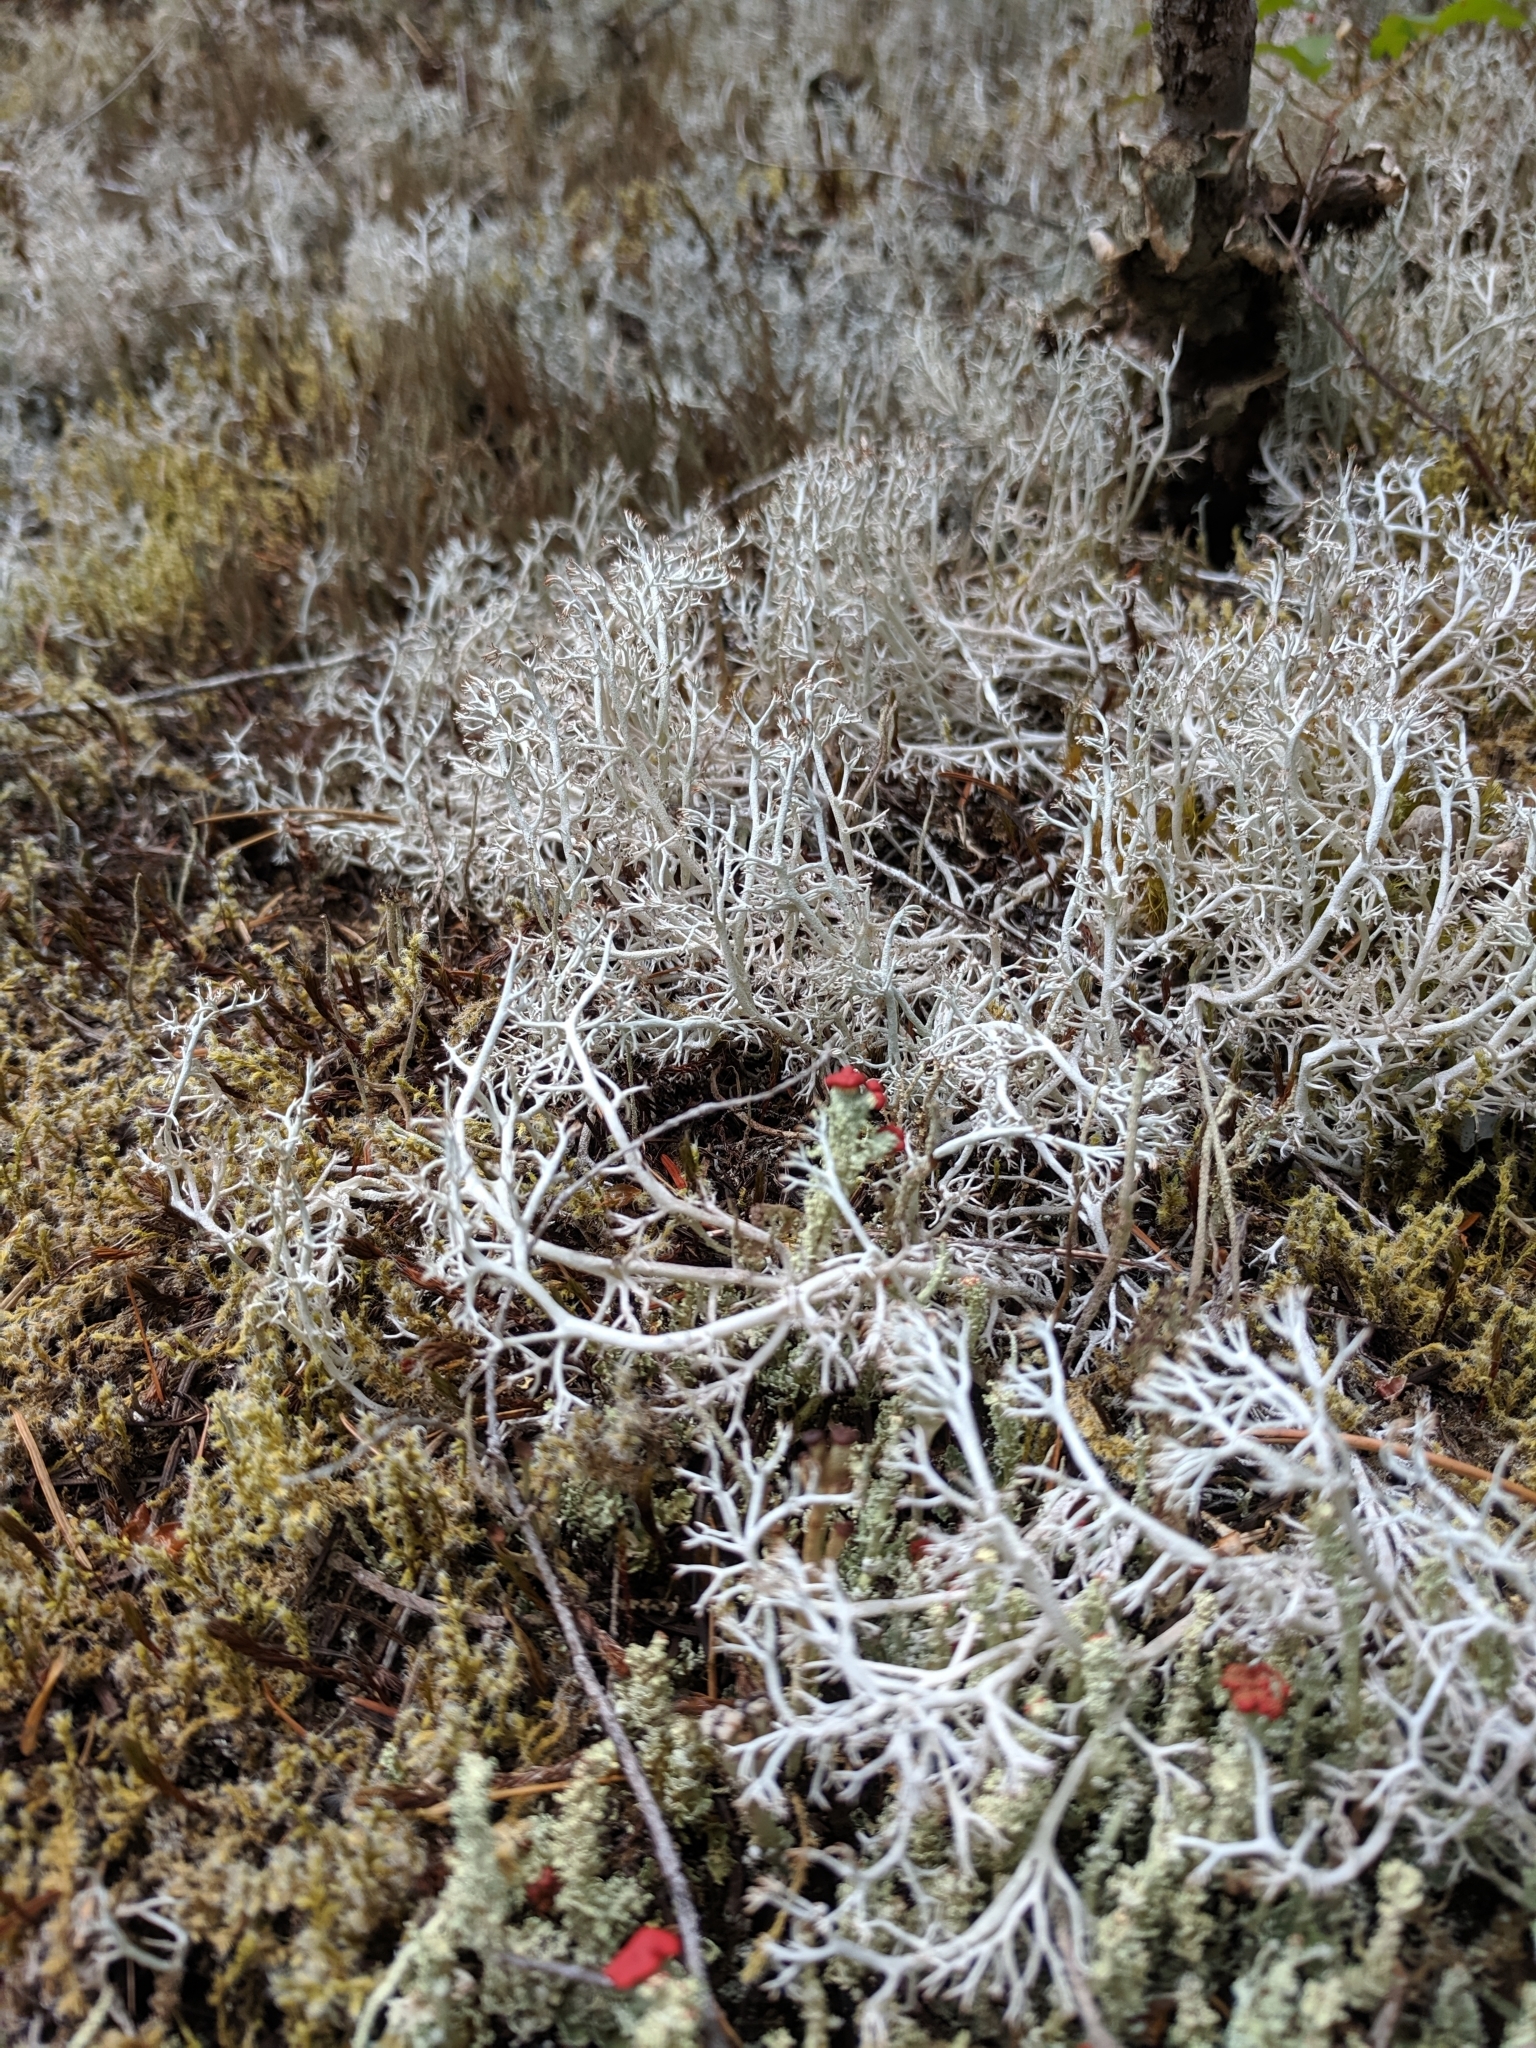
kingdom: Fungi
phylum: Ascomycota
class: Lecanoromycetes
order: Lecanorales
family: Cladoniaceae
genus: Cladonia
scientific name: Cladonia rangiferina
